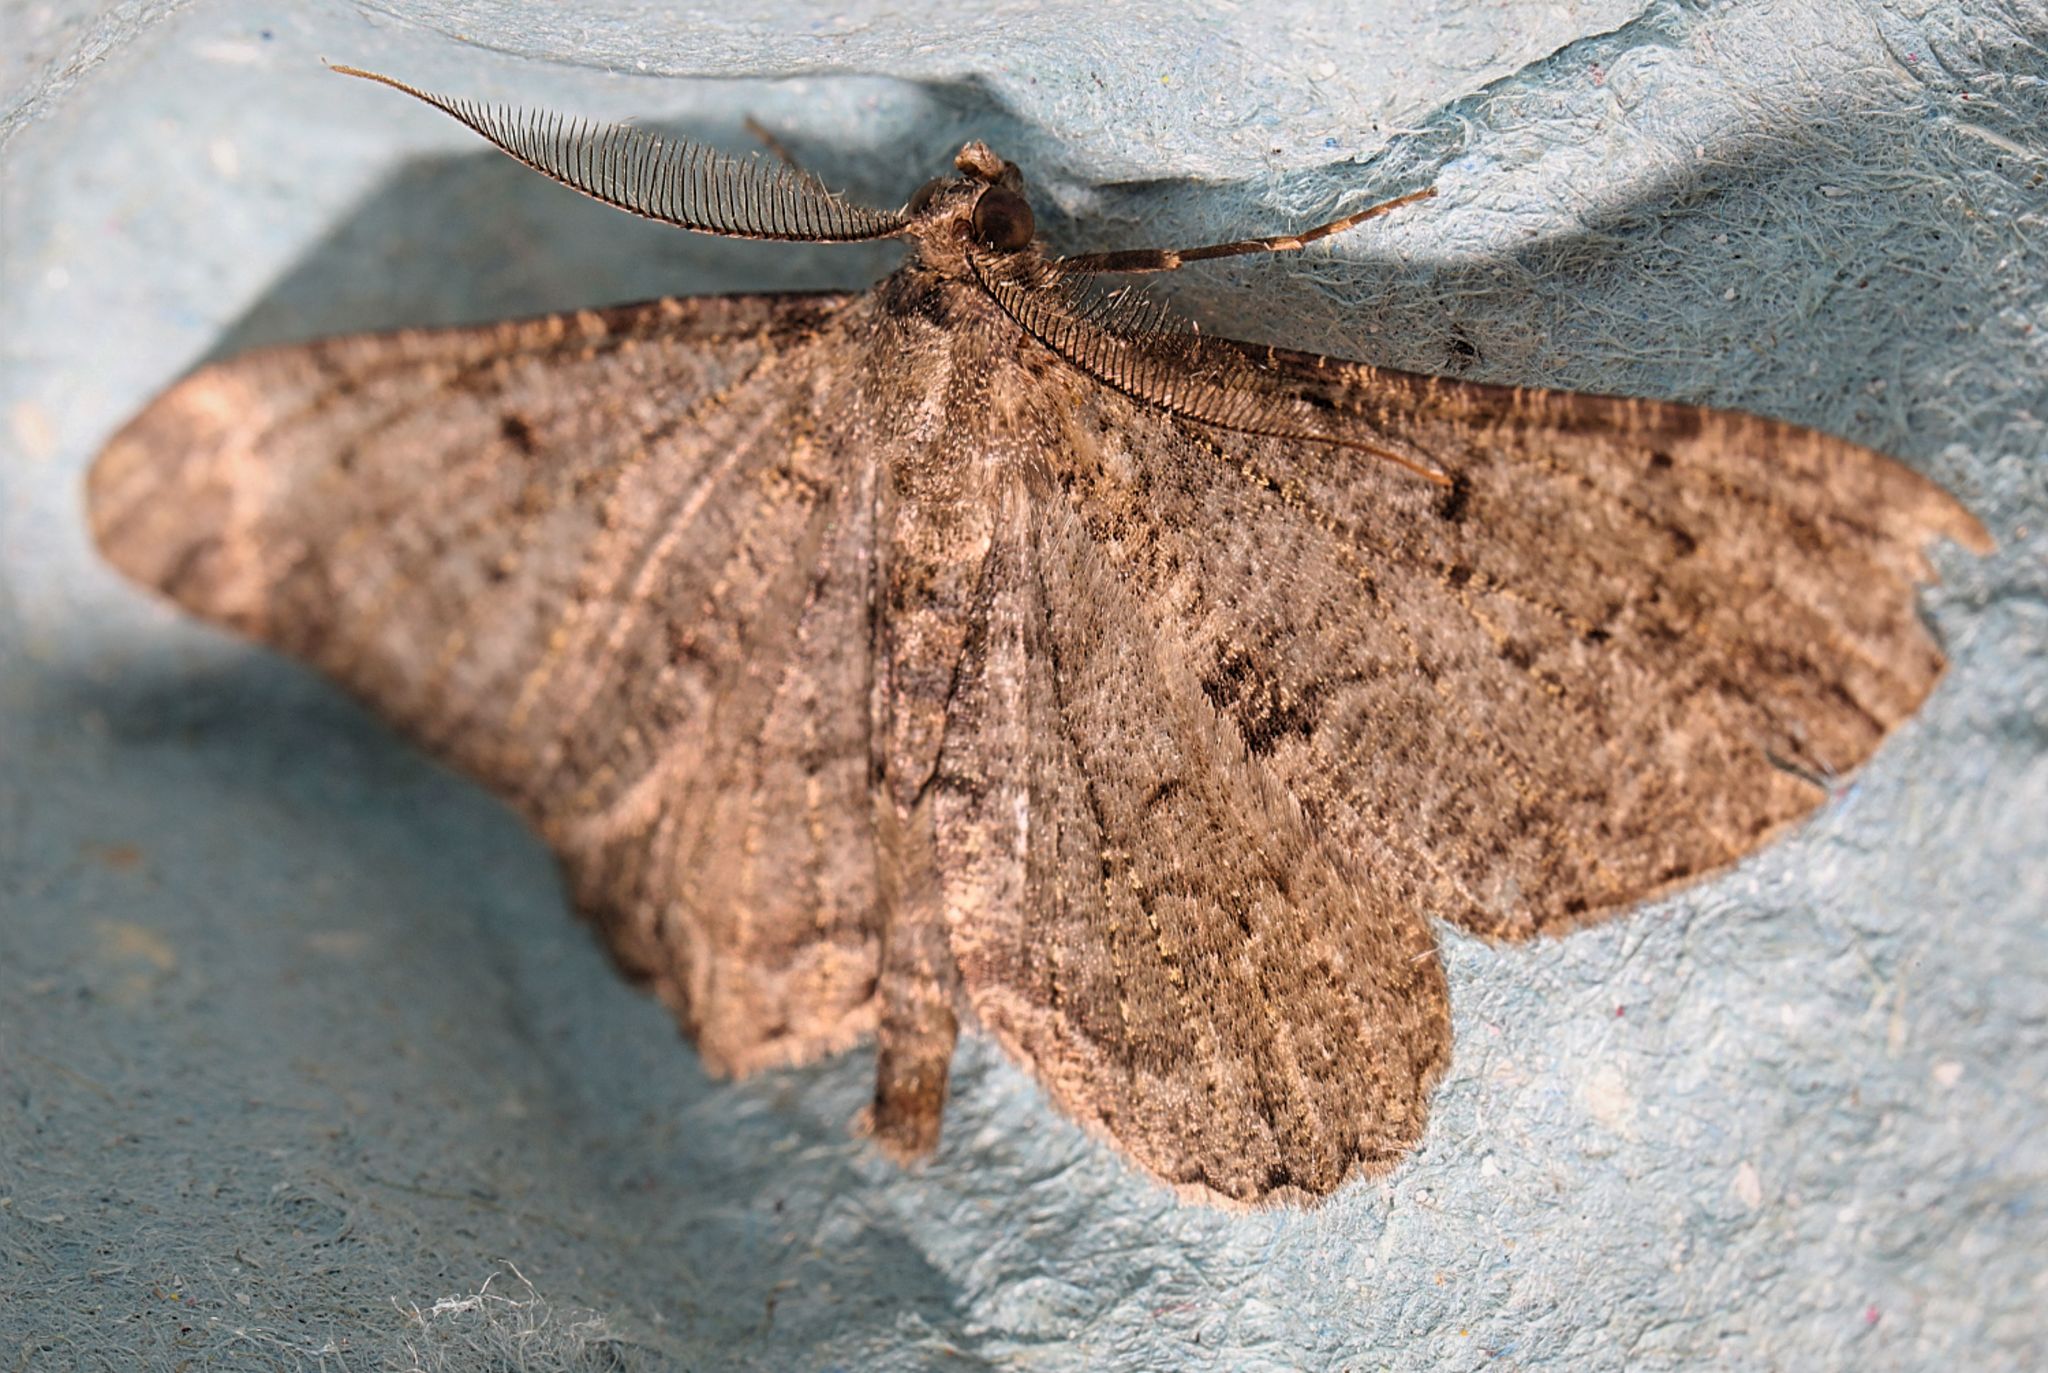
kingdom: Animalia
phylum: Arthropoda
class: Insecta
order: Lepidoptera
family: Geometridae
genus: Peribatodes
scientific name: Peribatodes rhomboidaria
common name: Willow beauty
